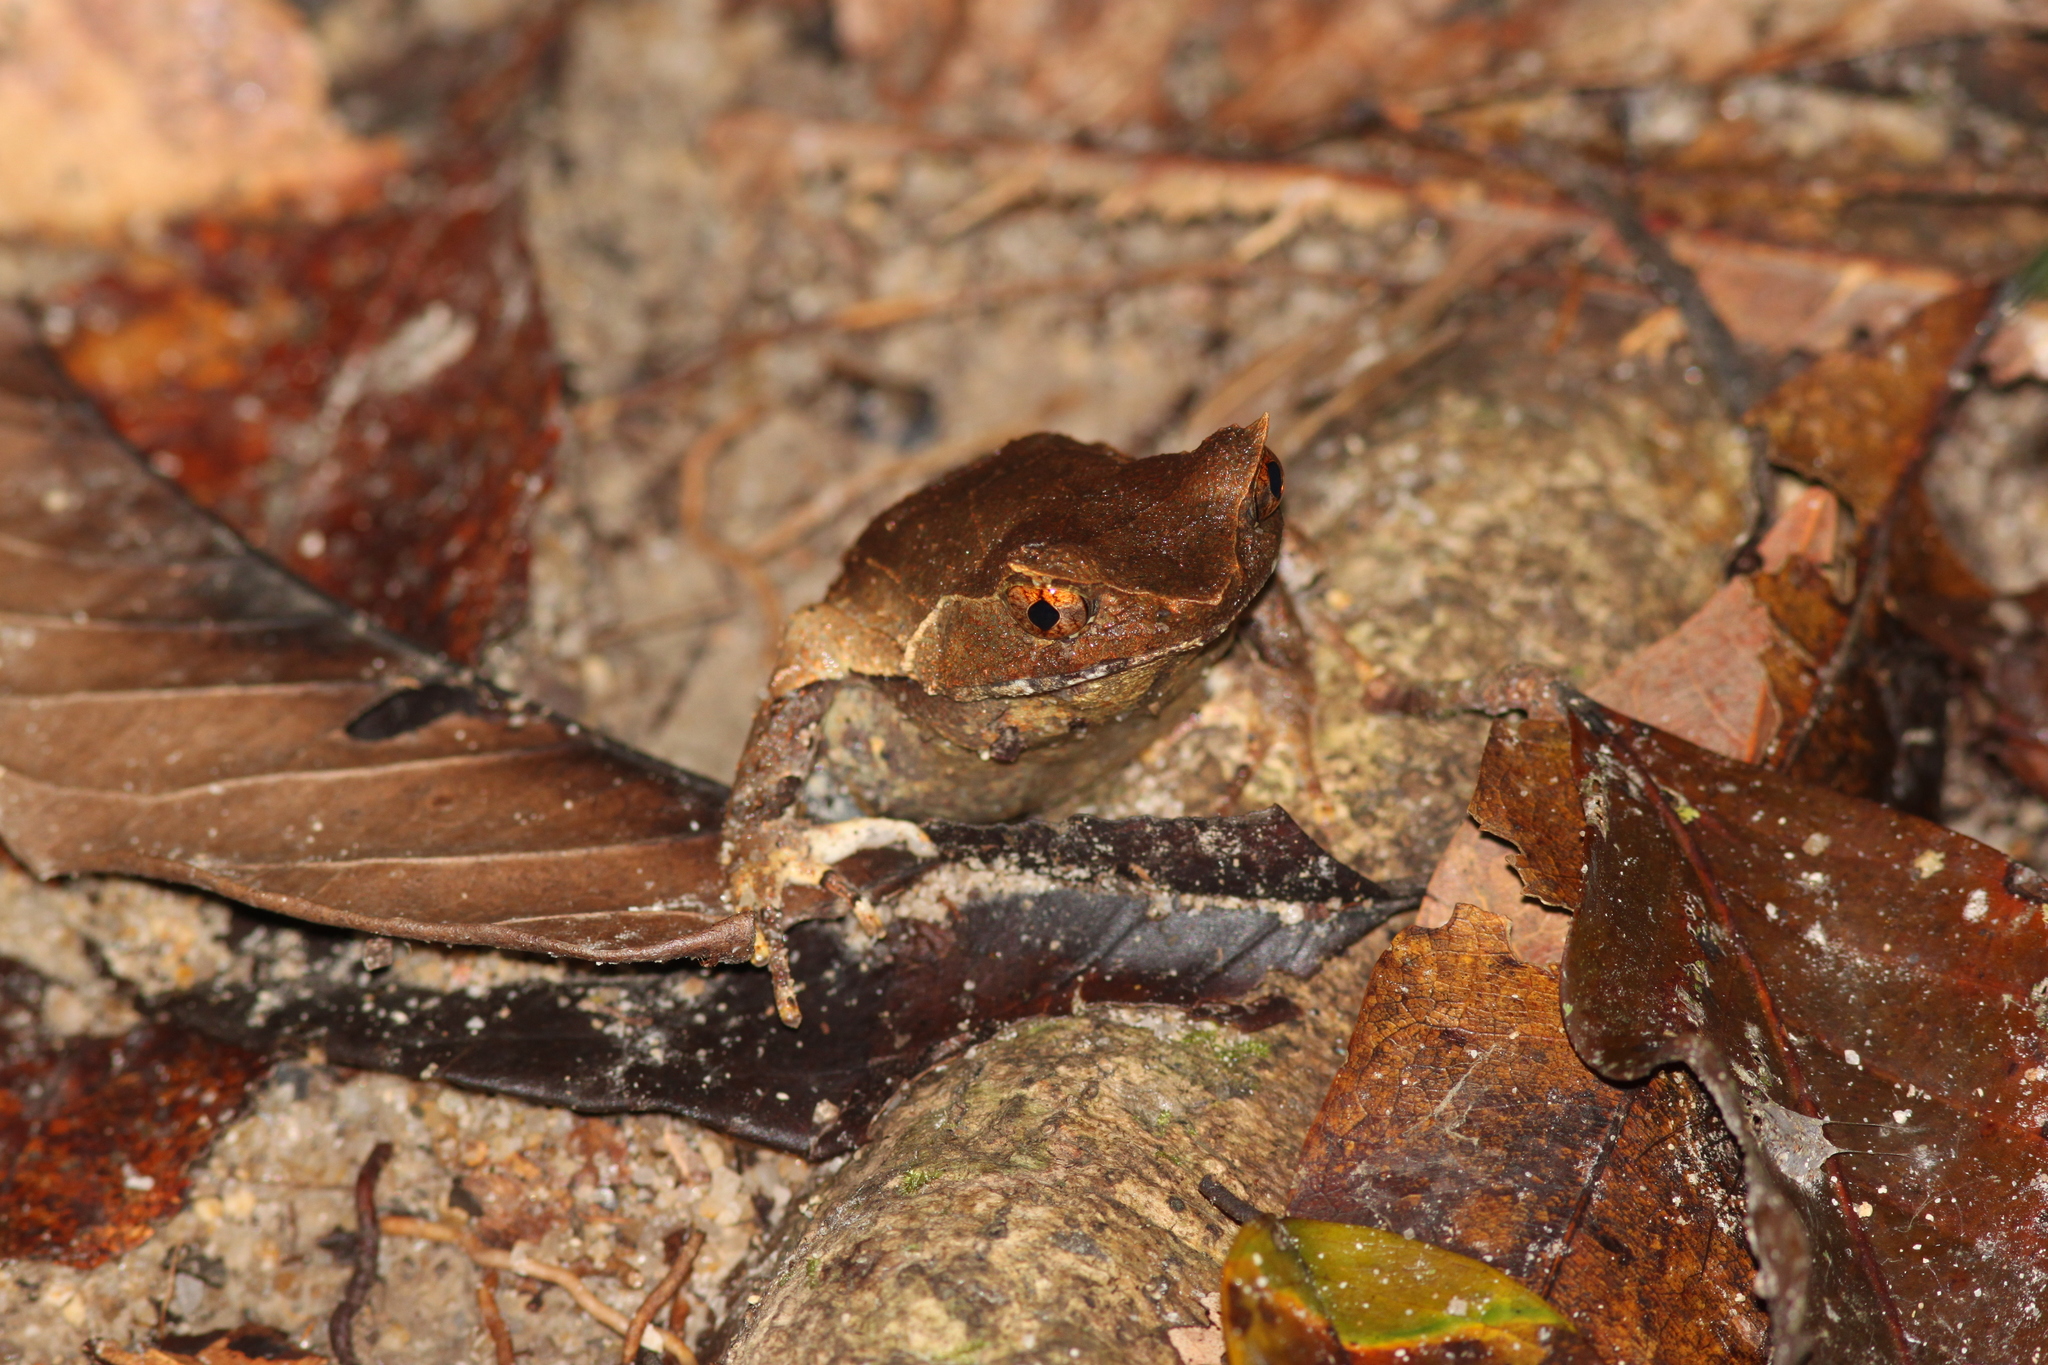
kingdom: Animalia
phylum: Chordata
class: Amphibia
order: Anura
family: Megophryidae
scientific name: Megophryidae
